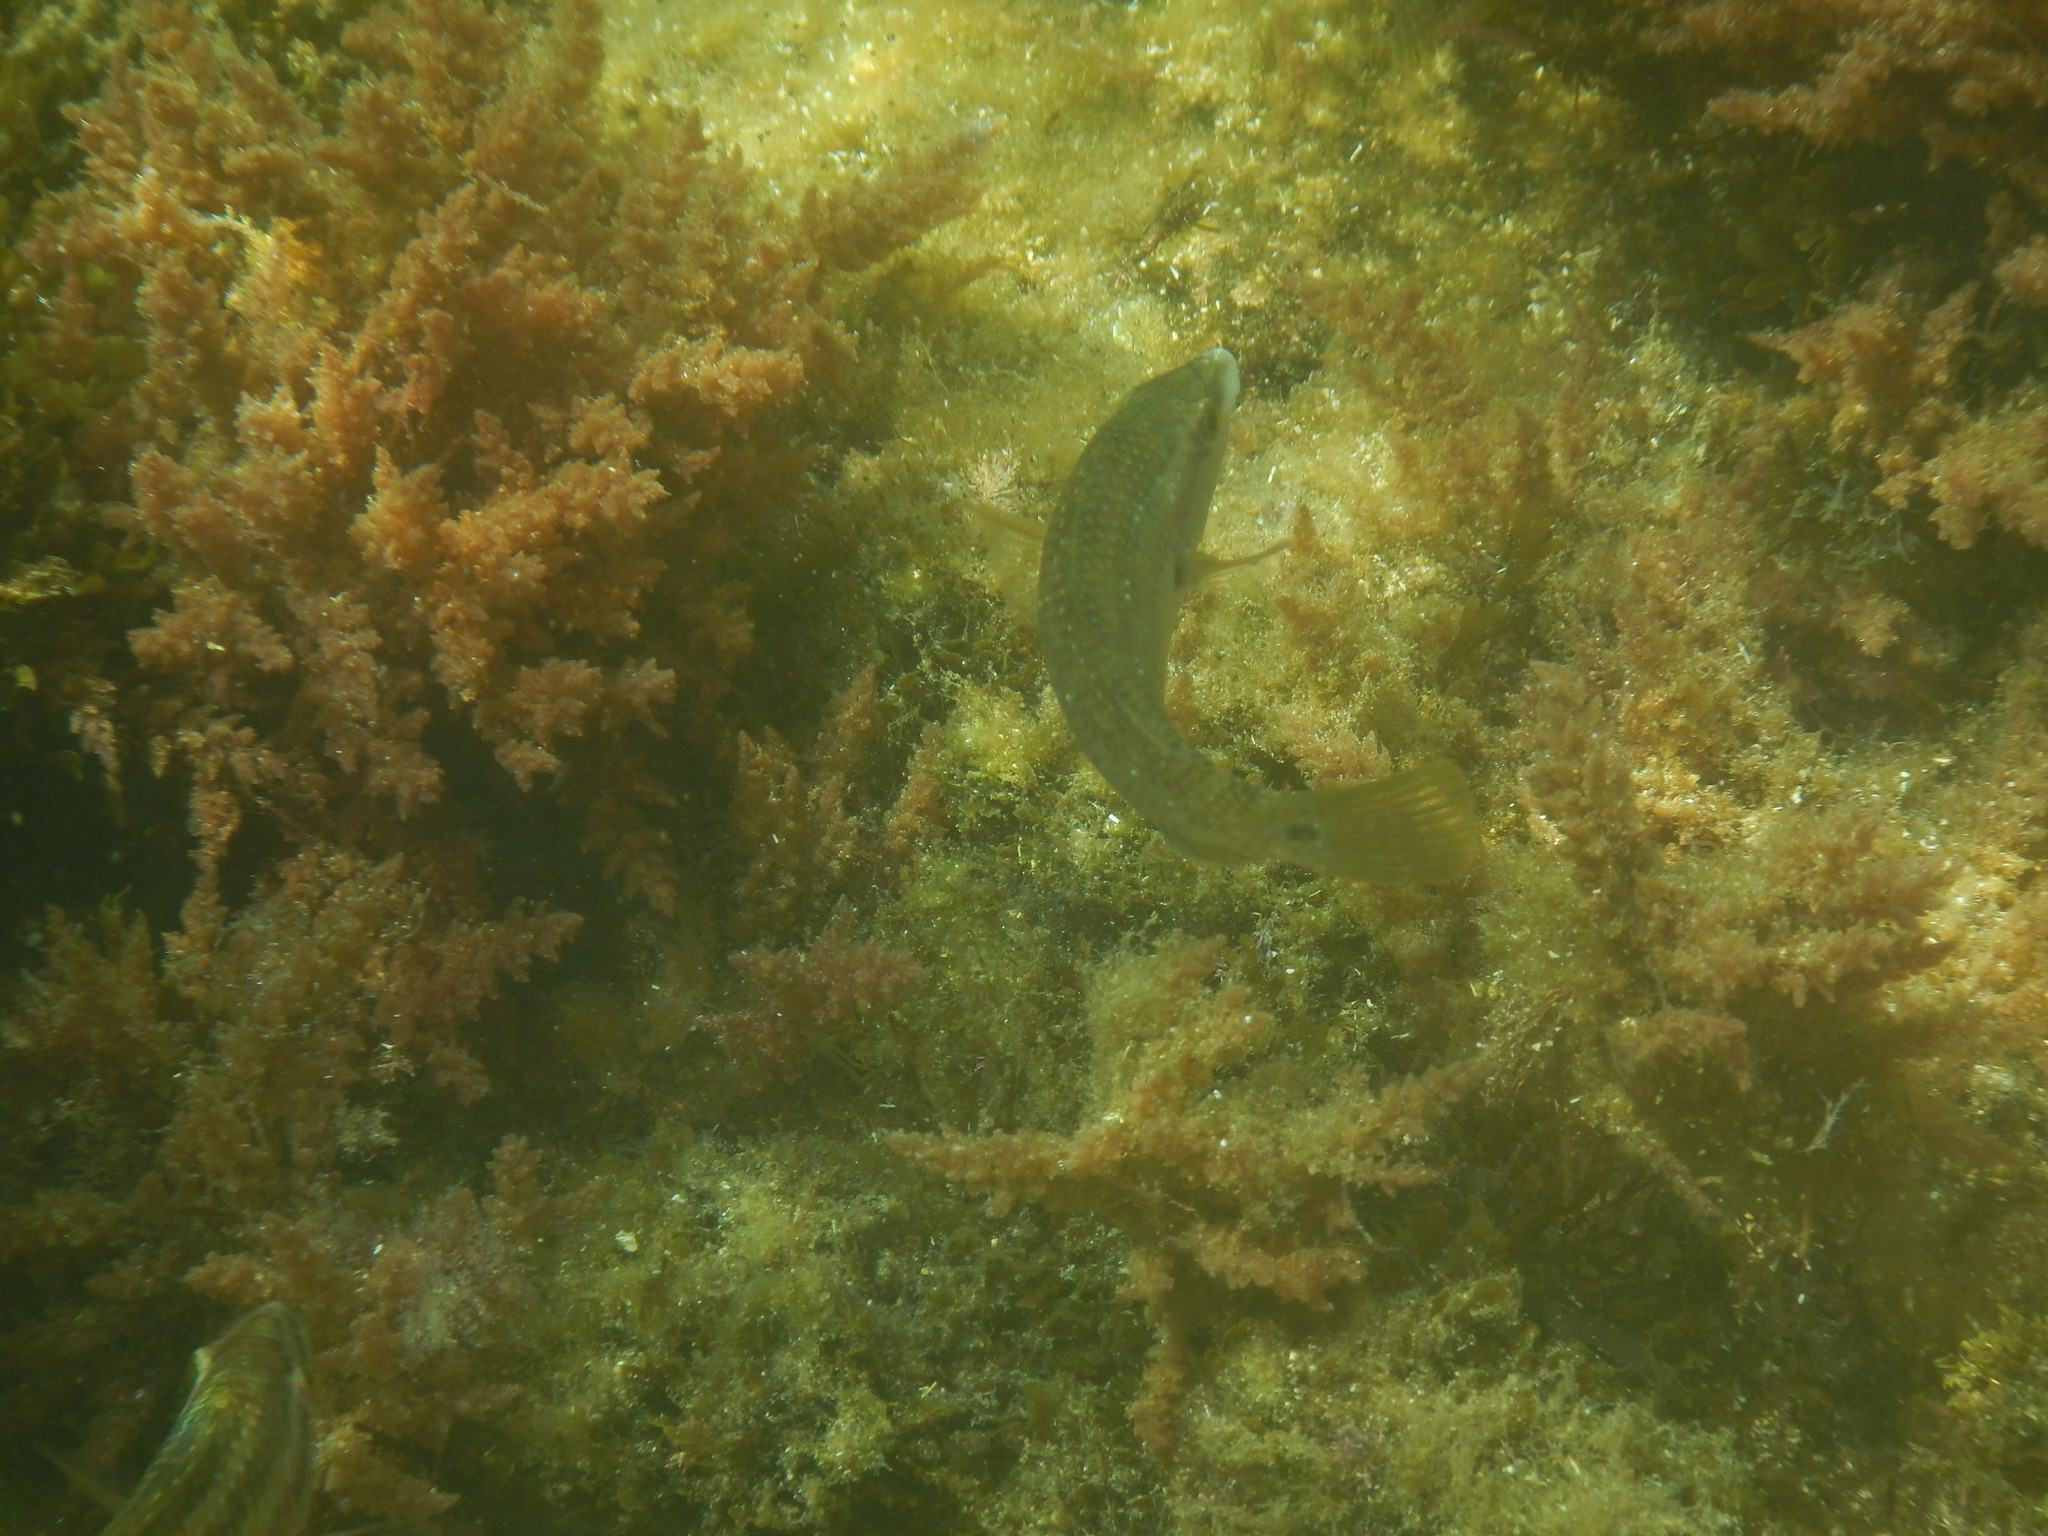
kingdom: Animalia
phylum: Chordata
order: Perciformes
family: Labridae
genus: Symphodus
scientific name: Symphodus tinca
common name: Peacock wrasse
